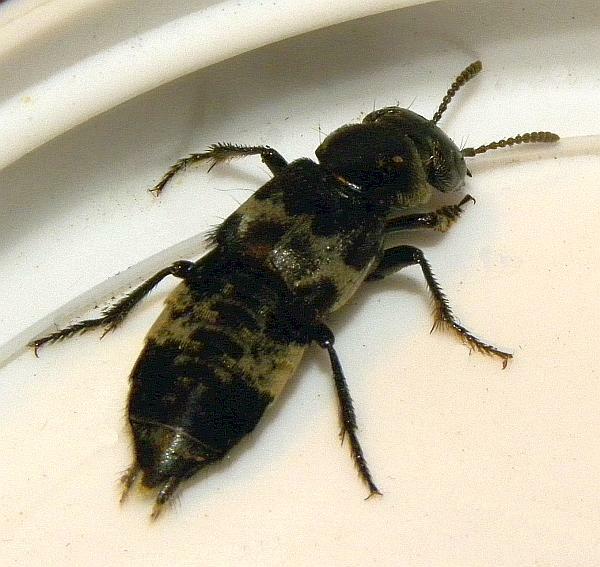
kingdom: Animalia
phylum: Arthropoda
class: Insecta
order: Coleoptera
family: Staphylinidae
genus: Creophilus
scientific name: Creophilus maxillosus
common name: Hairy rove beetle
